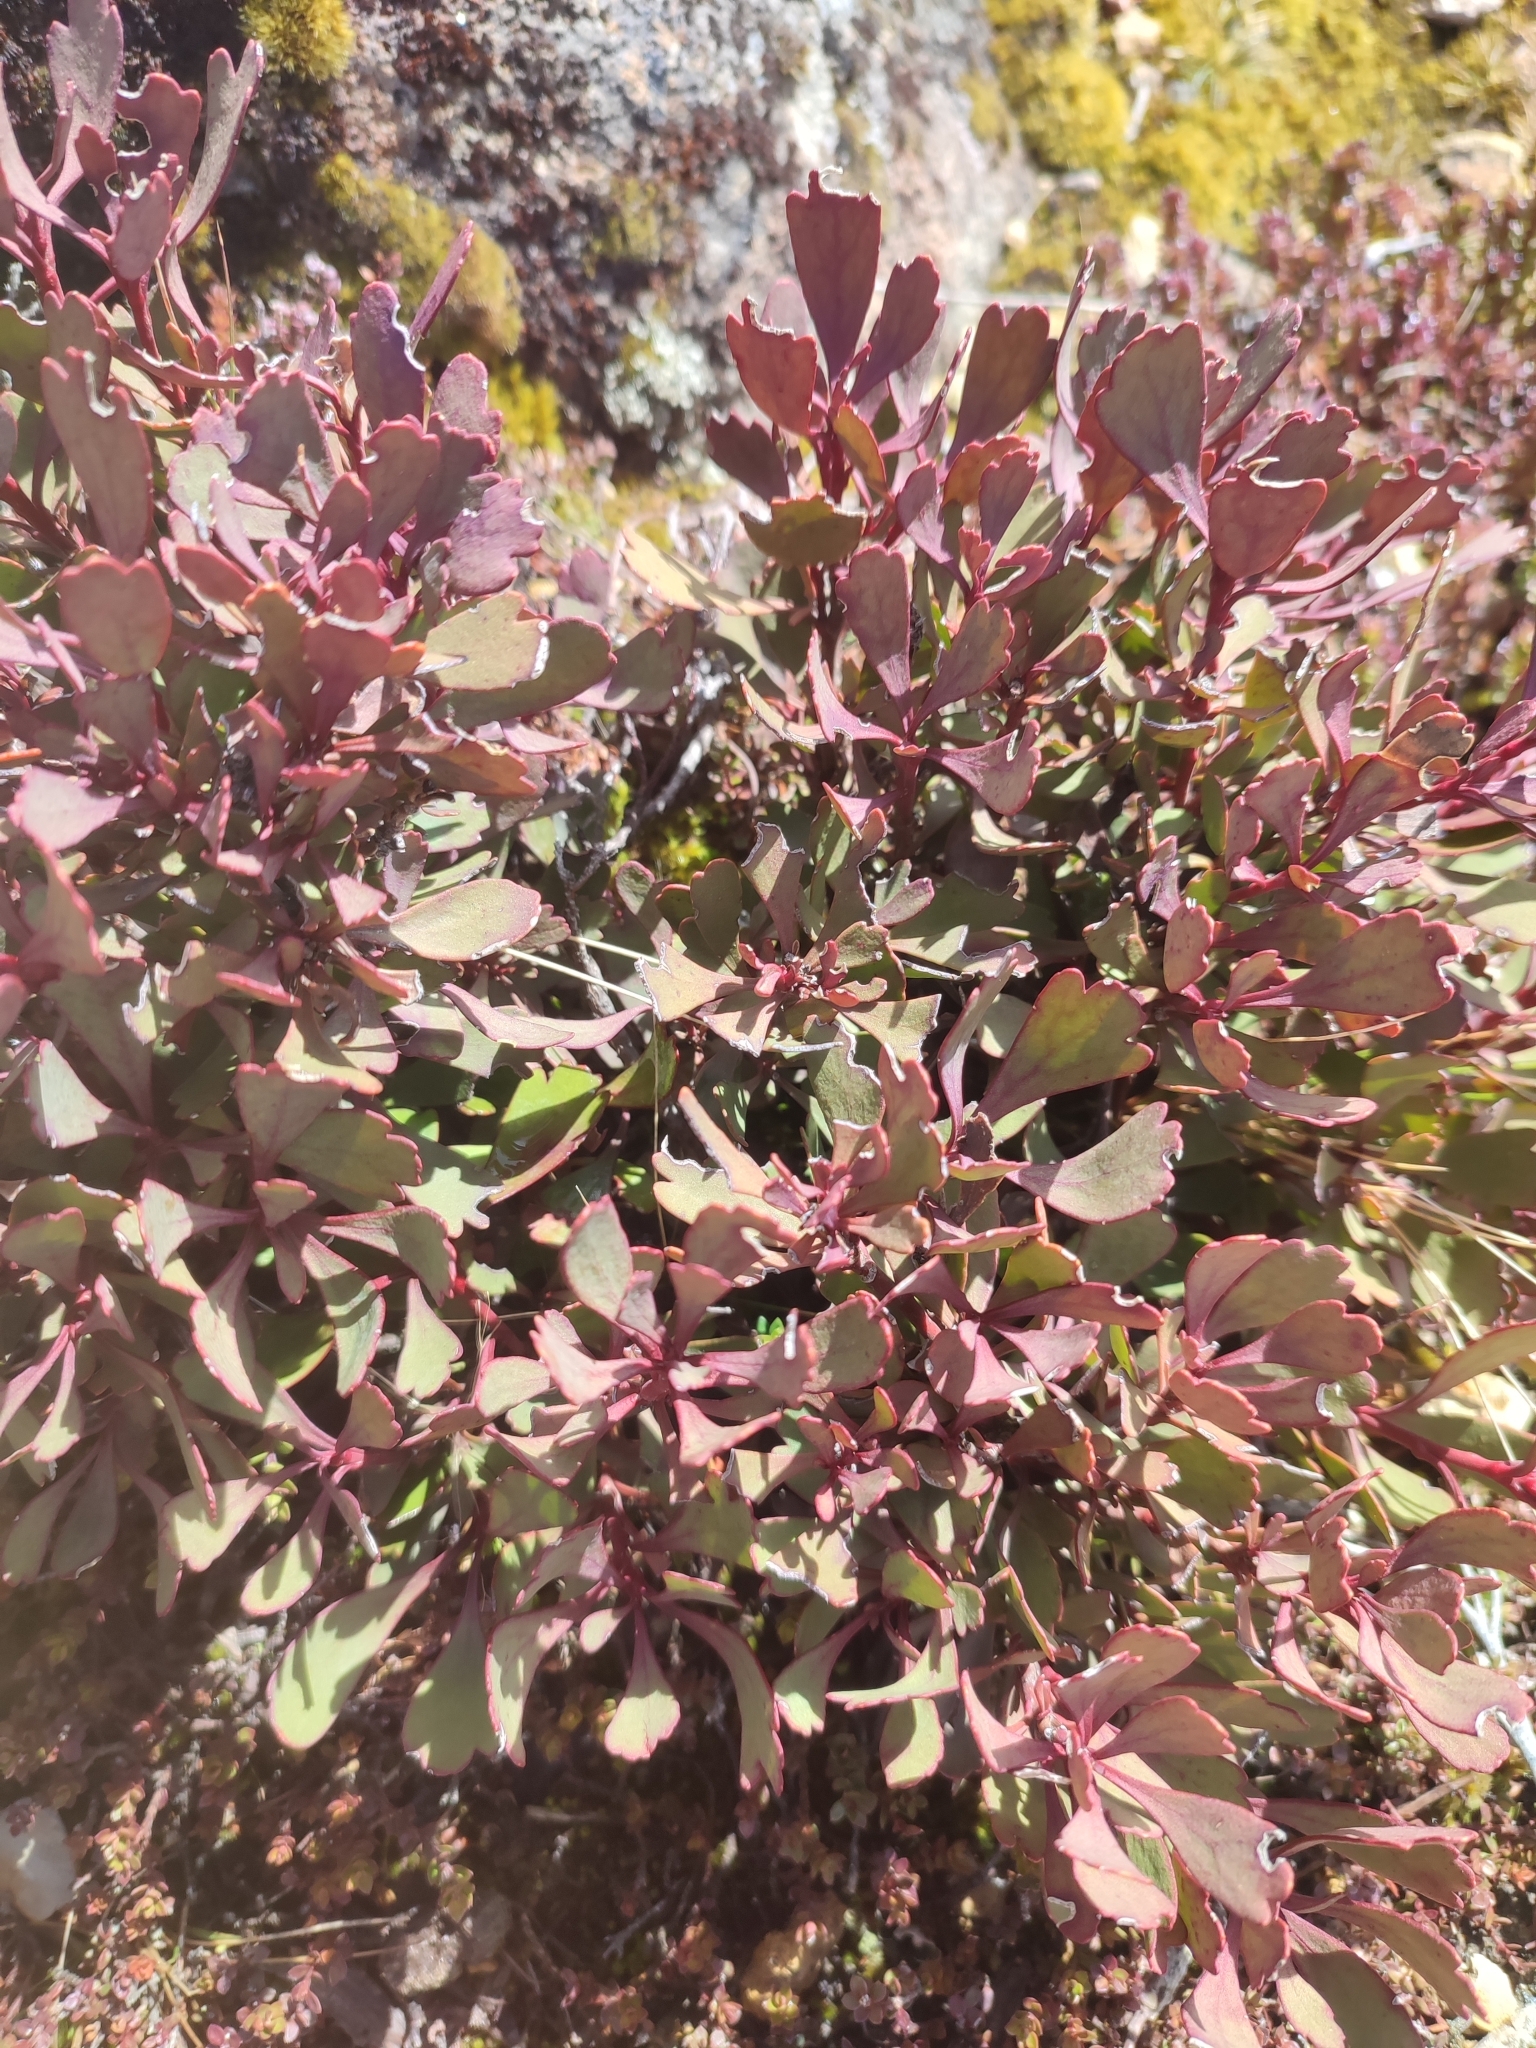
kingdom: Plantae
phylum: Tracheophyta
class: Magnoliopsida
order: Proteales
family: Proteaceae
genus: Bellendena
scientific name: Bellendena montana
